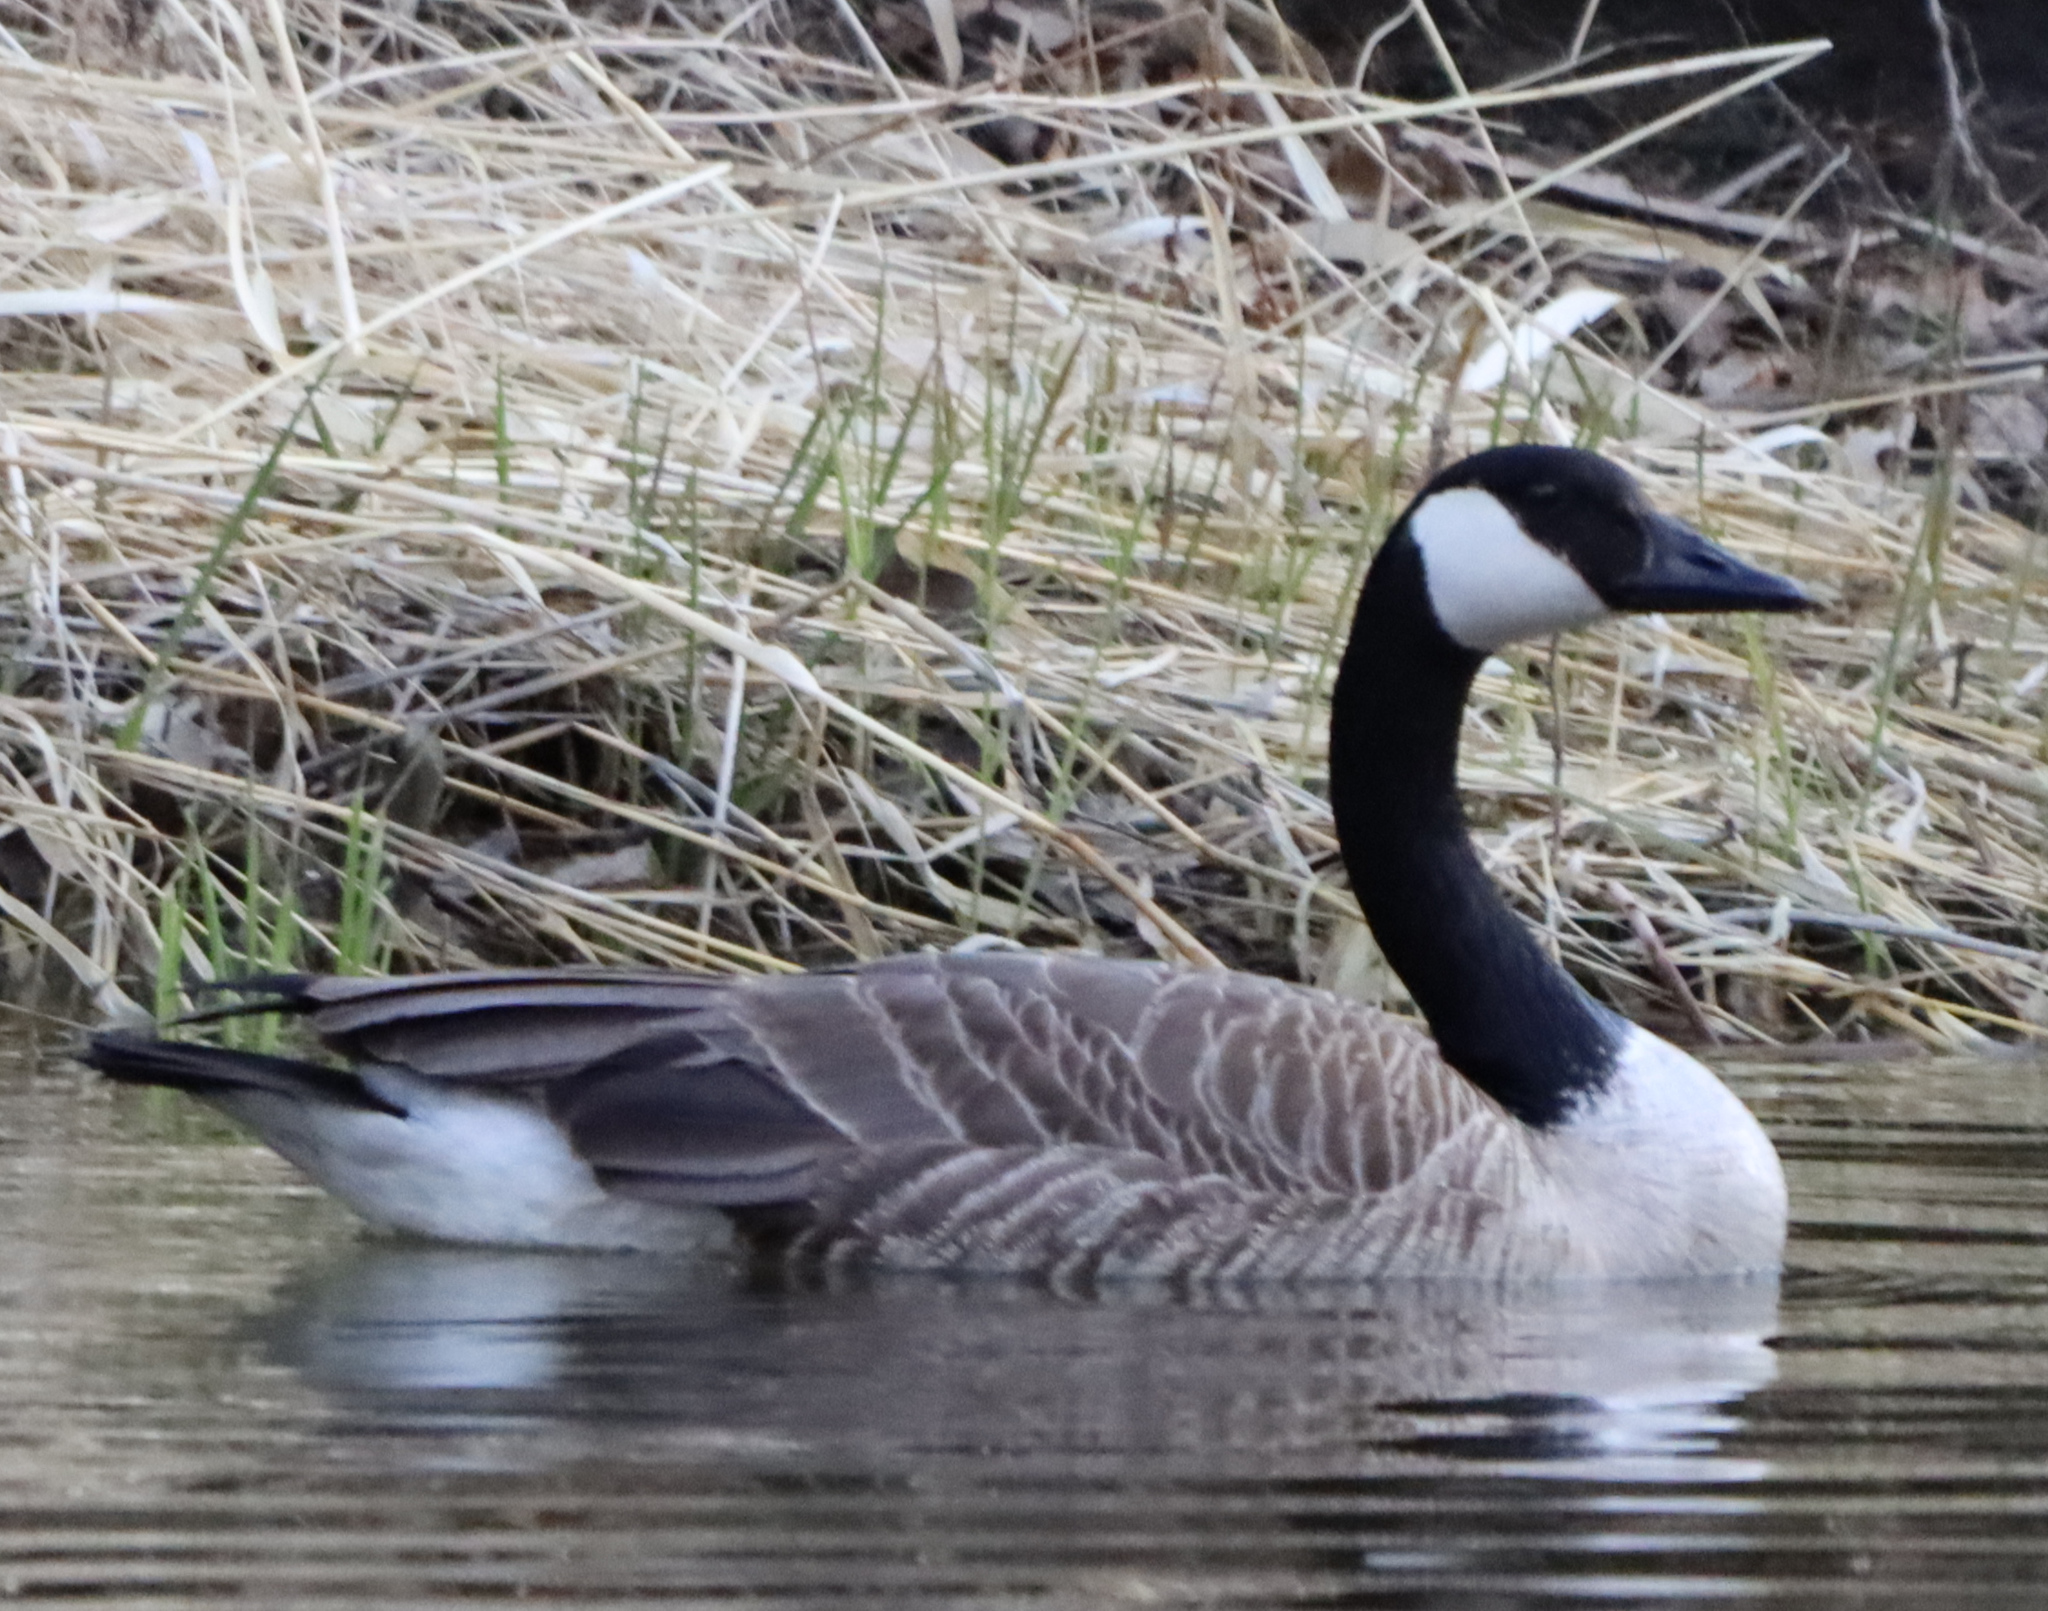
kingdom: Animalia
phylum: Chordata
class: Aves
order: Anseriformes
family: Anatidae
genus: Branta
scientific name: Branta canadensis
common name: Canada goose
